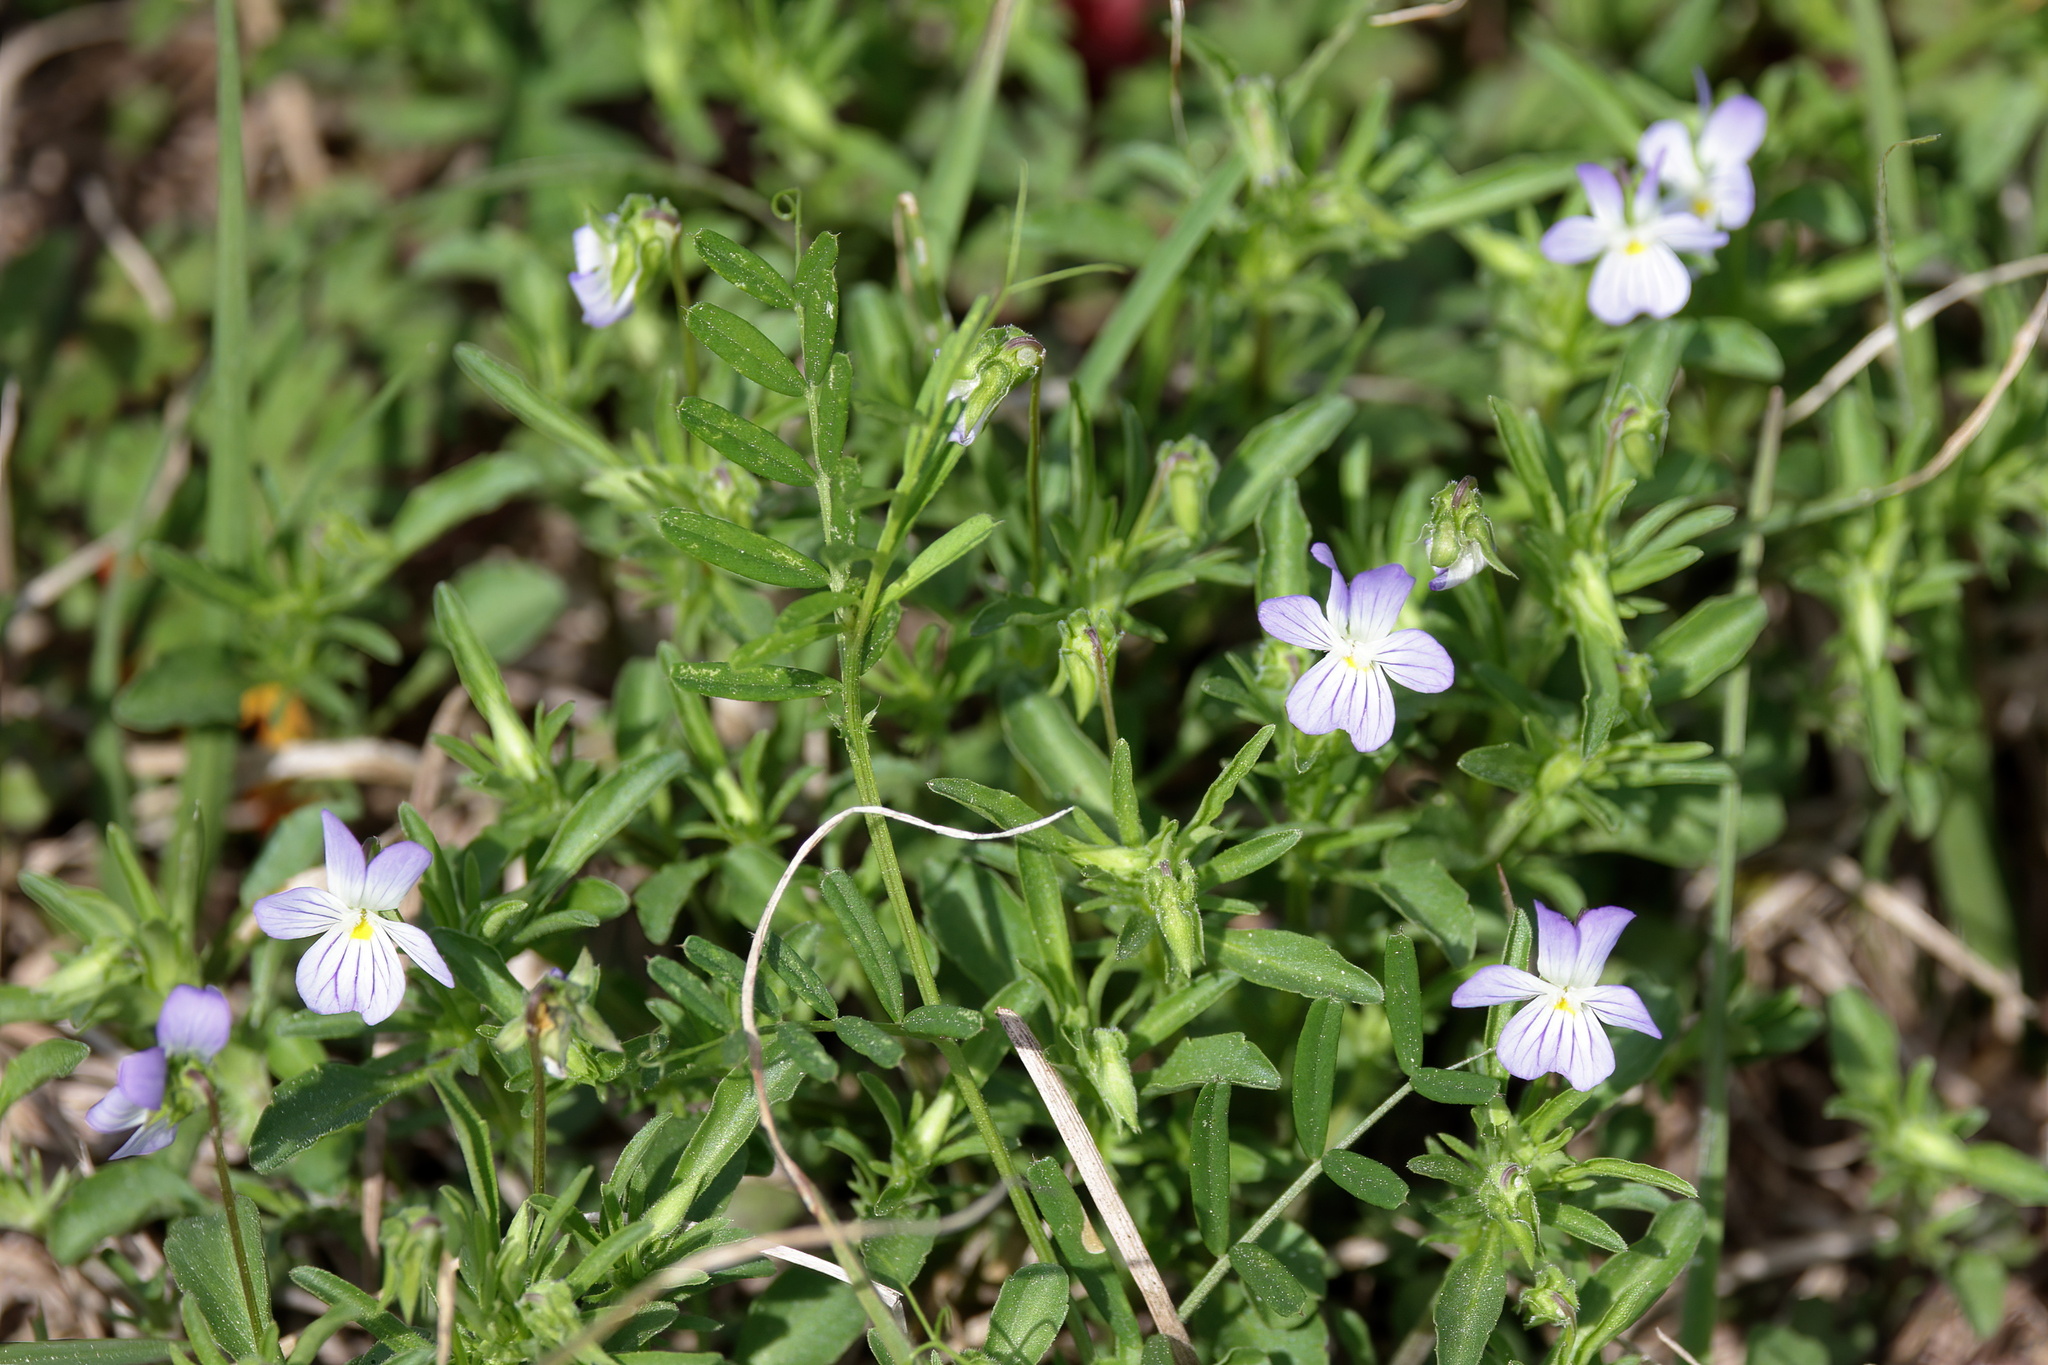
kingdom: Plantae
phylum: Tracheophyta
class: Magnoliopsida
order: Malpighiales
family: Violaceae
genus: Viola
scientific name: Viola rafinesquei
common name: American field pansy
